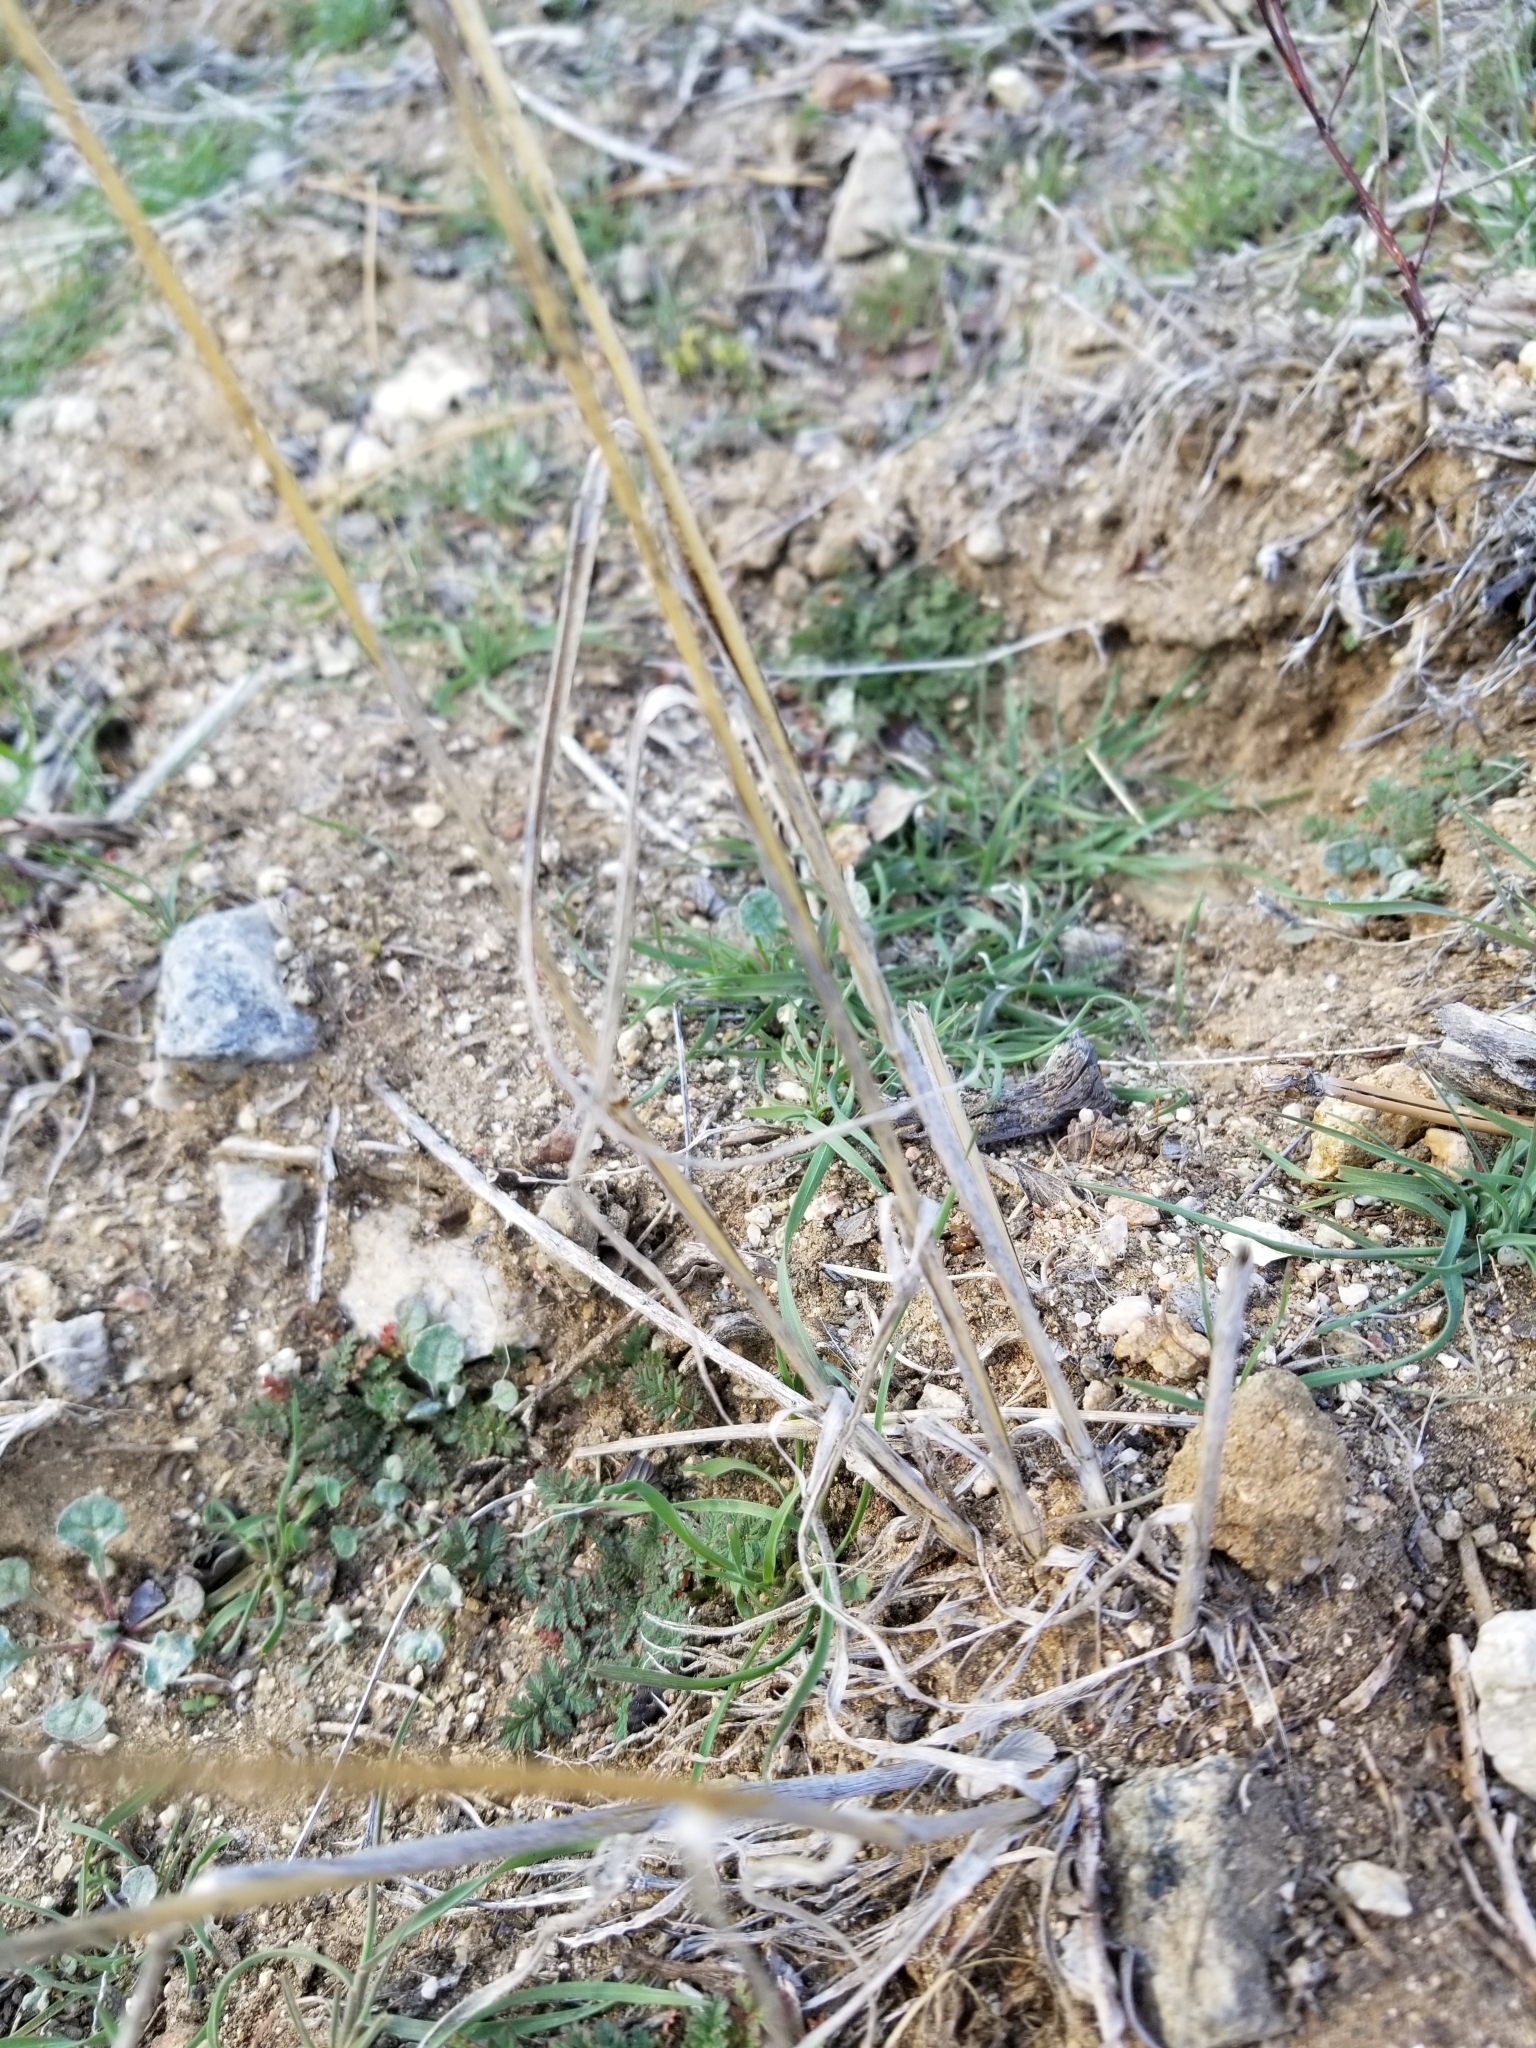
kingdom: Plantae
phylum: Tracheophyta
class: Liliopsida
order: Poales
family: Poaceae
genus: Bromus
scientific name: Bromus tectorum
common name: Cheatgrass
